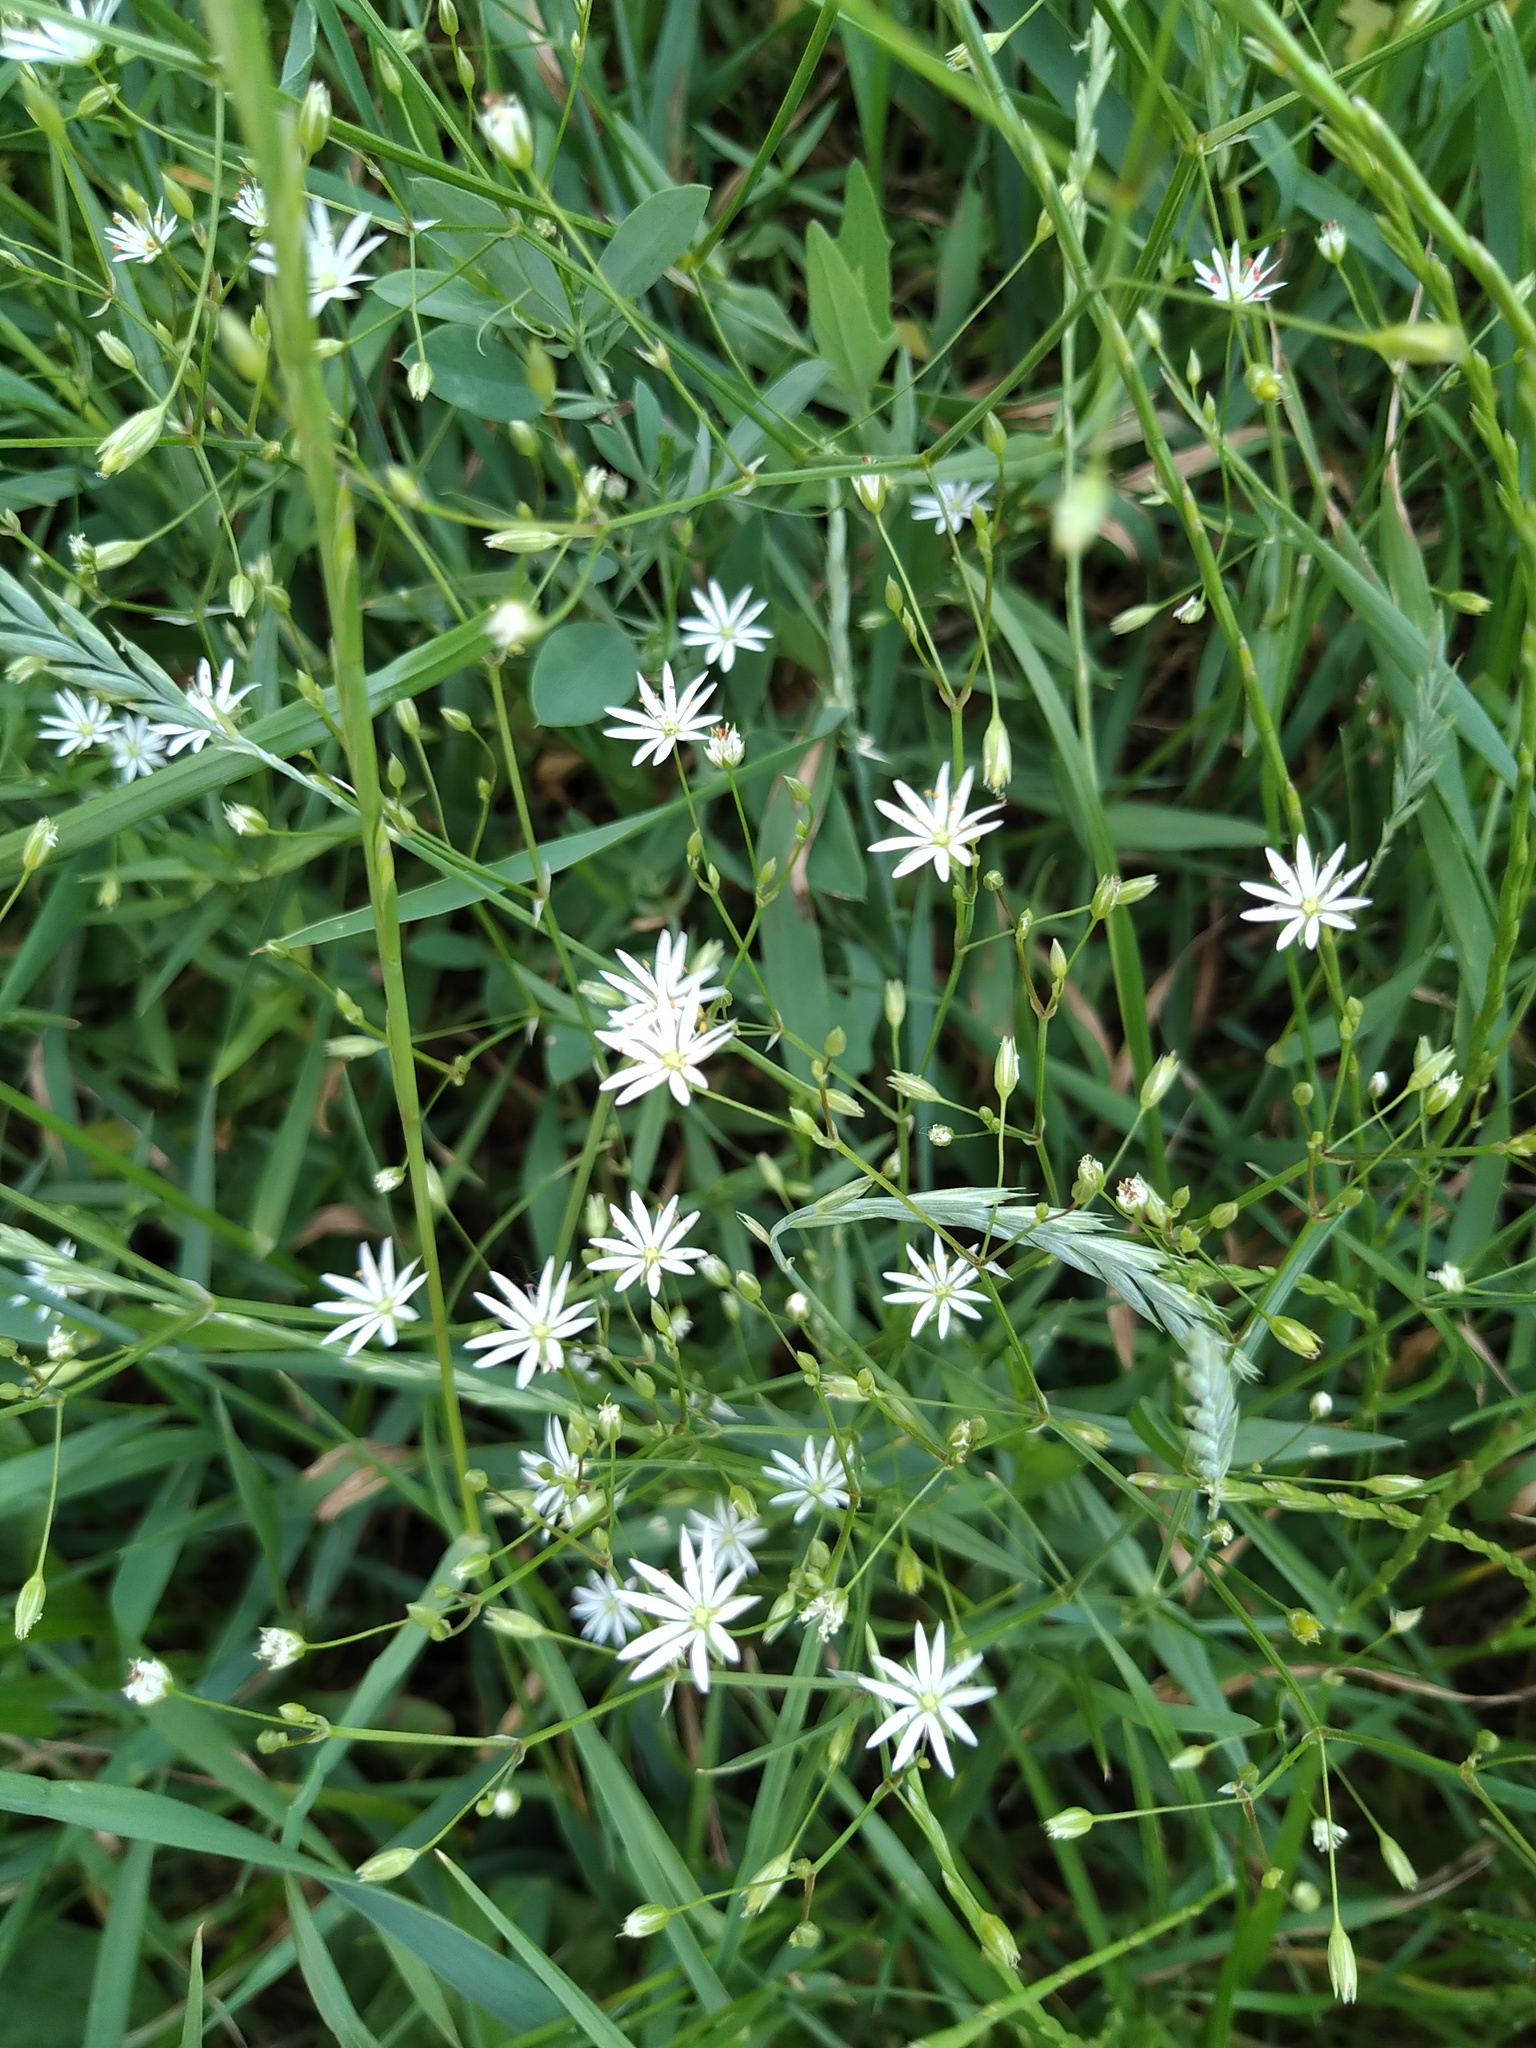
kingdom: Plantae
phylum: Tracheophyta
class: Magnoliopsida
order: Caryophyllales
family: Caryophyllaceae
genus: Stellaria
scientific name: Stellaria palustris
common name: Marsh stitchwort
